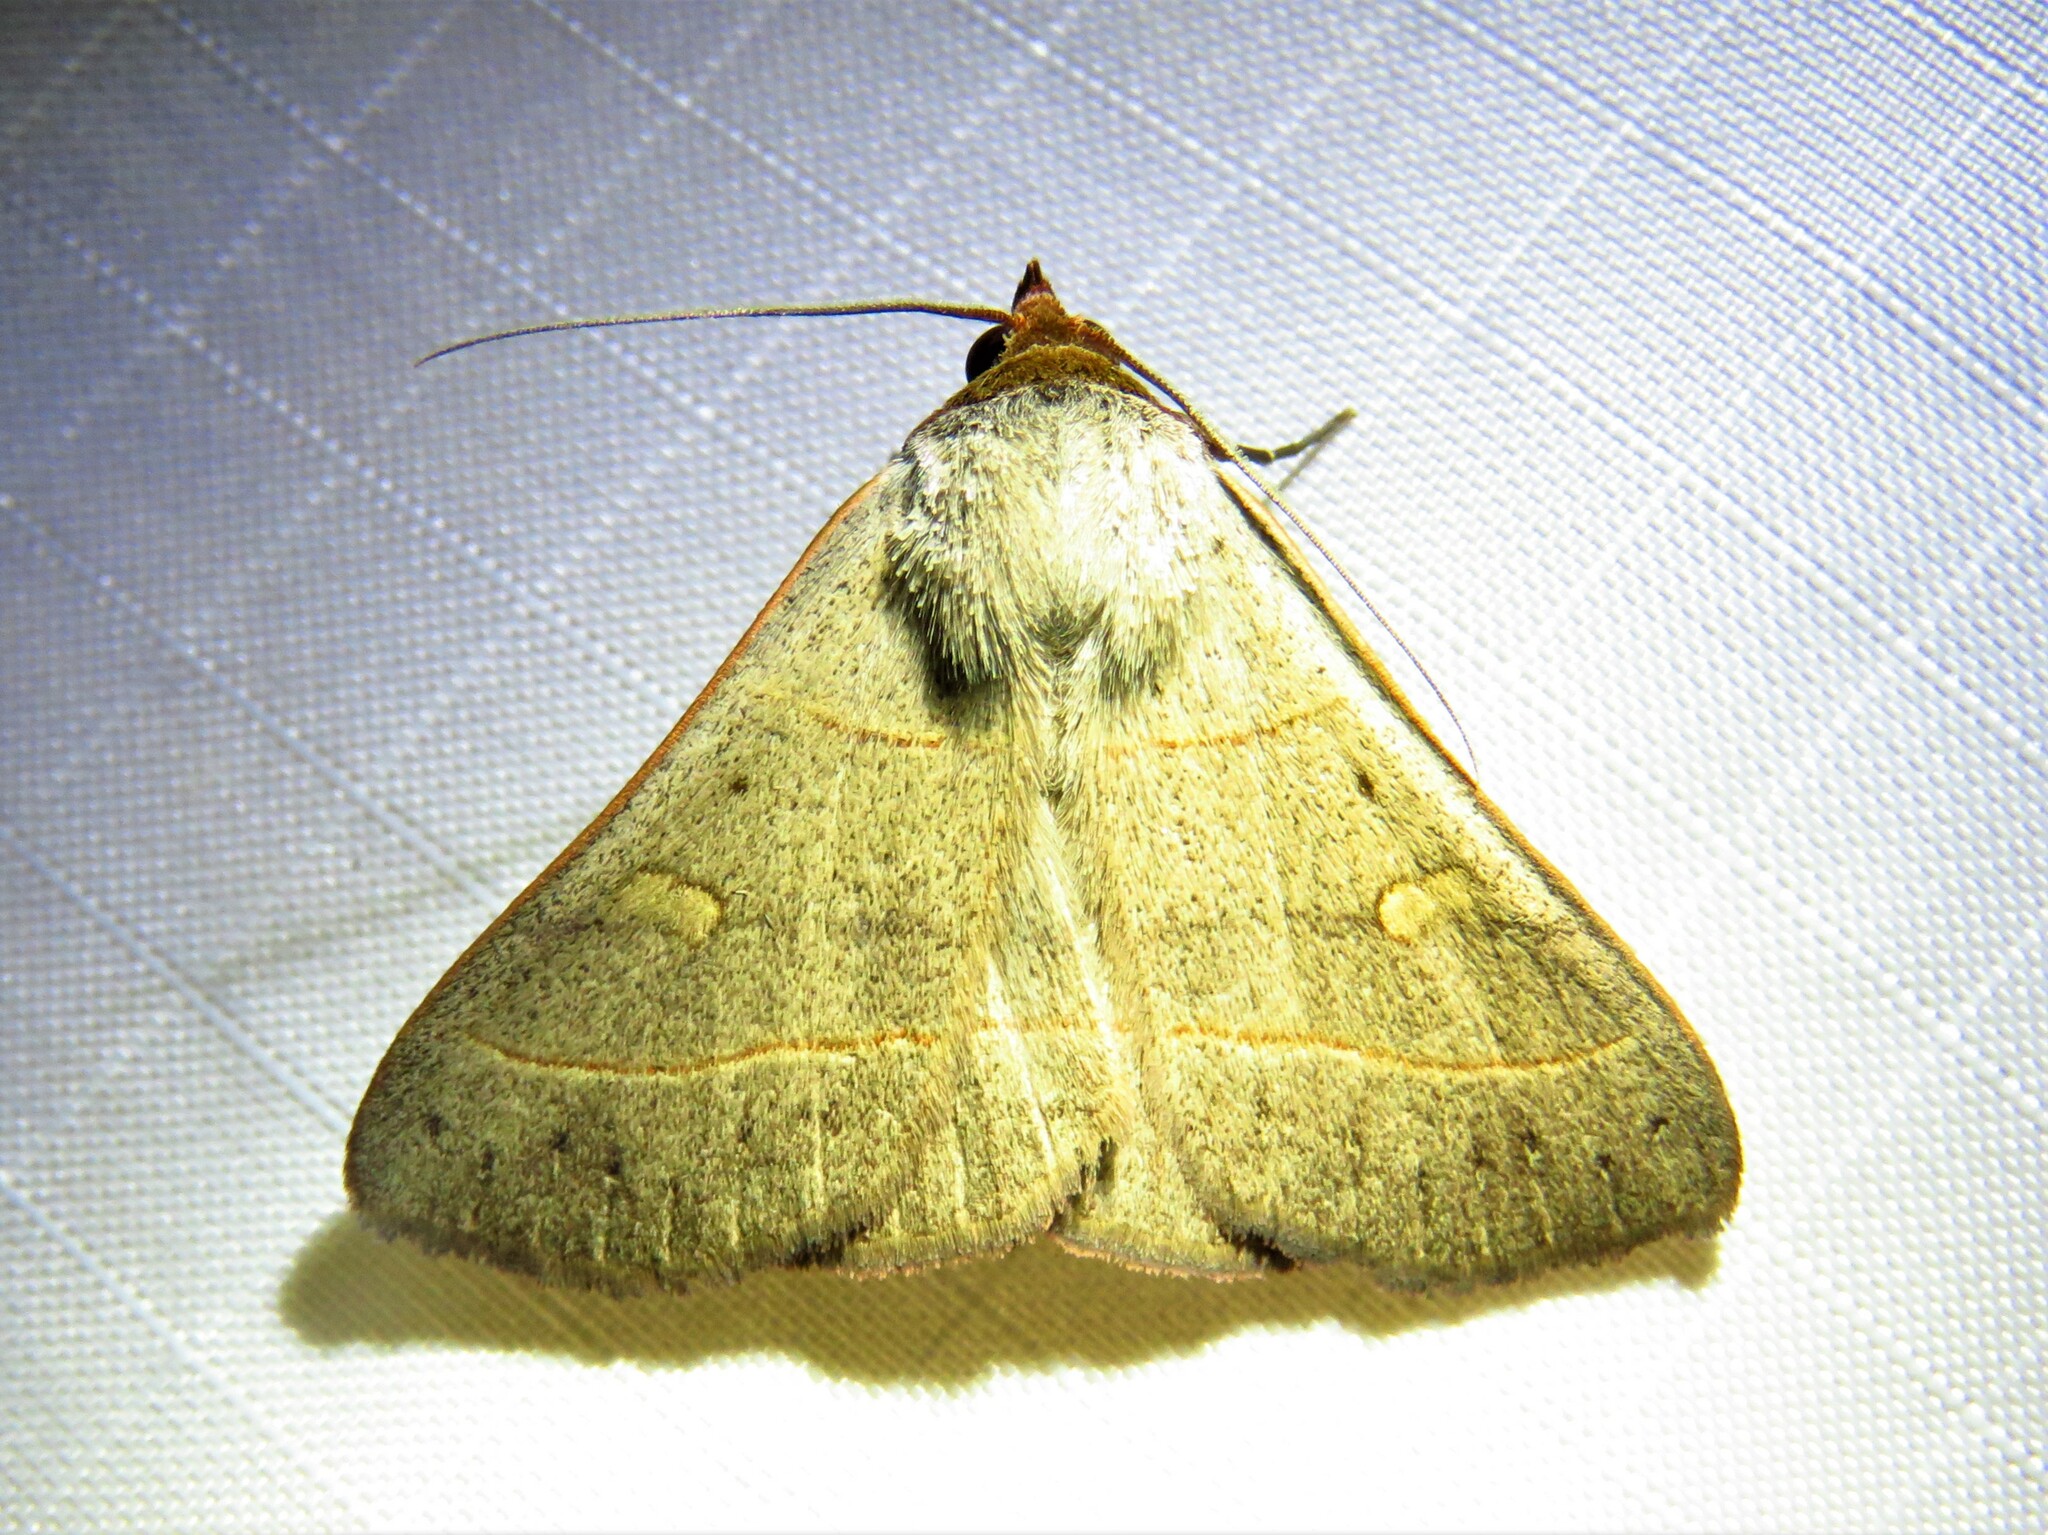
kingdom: Animalia
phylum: Arthropoda
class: Insecta
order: Lepidoptera
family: Erebidae
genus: Panopoda
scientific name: Panopoda rufimargo
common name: Red-lined panopoda moth
